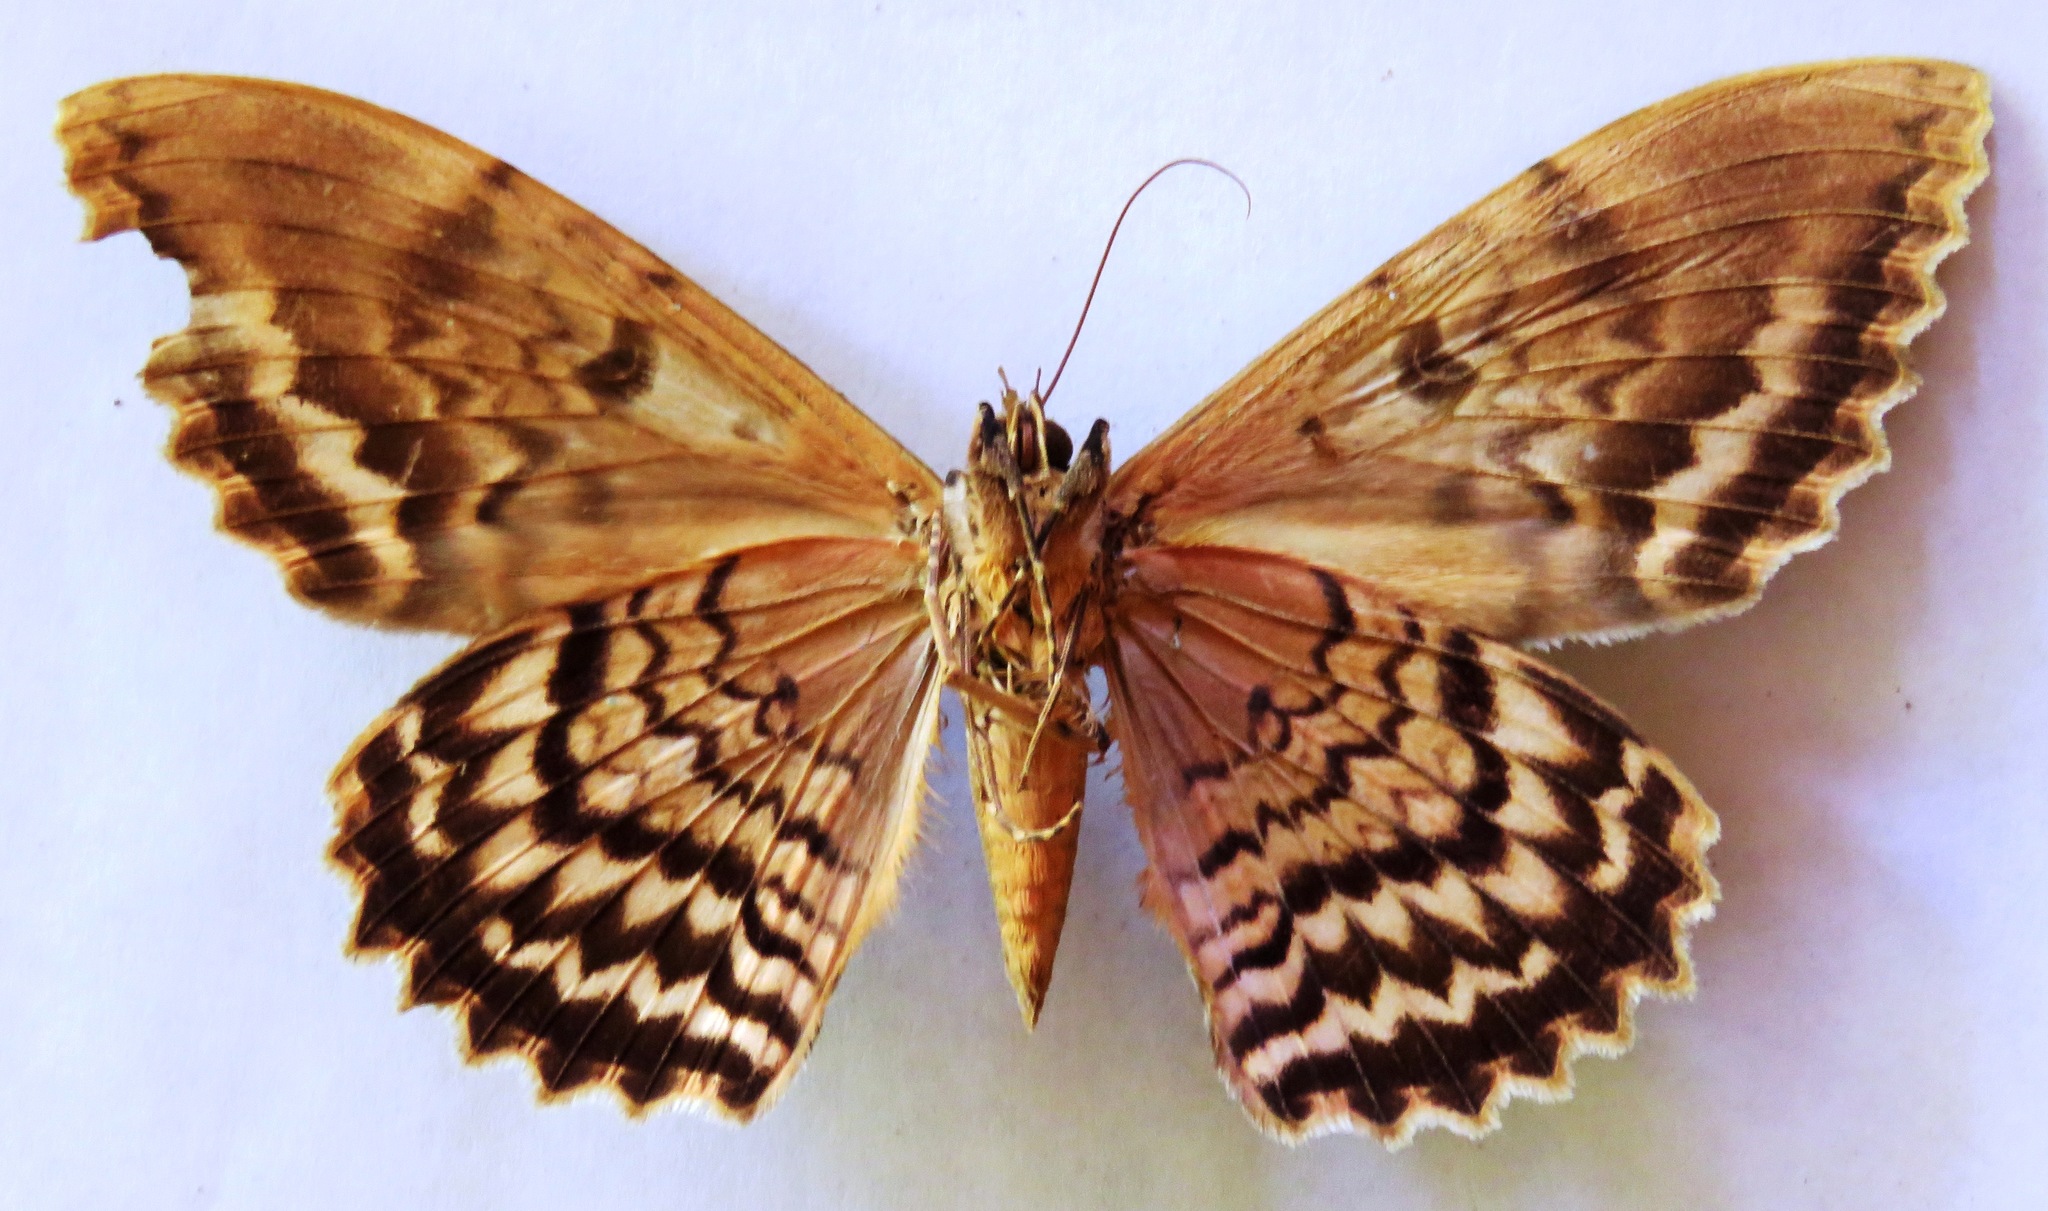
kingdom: Animalia
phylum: Arthropoda
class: Insecta
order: Lepidoptera
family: Erebidae
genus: Thysania
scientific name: Thysania zenobia
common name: Owl moth
